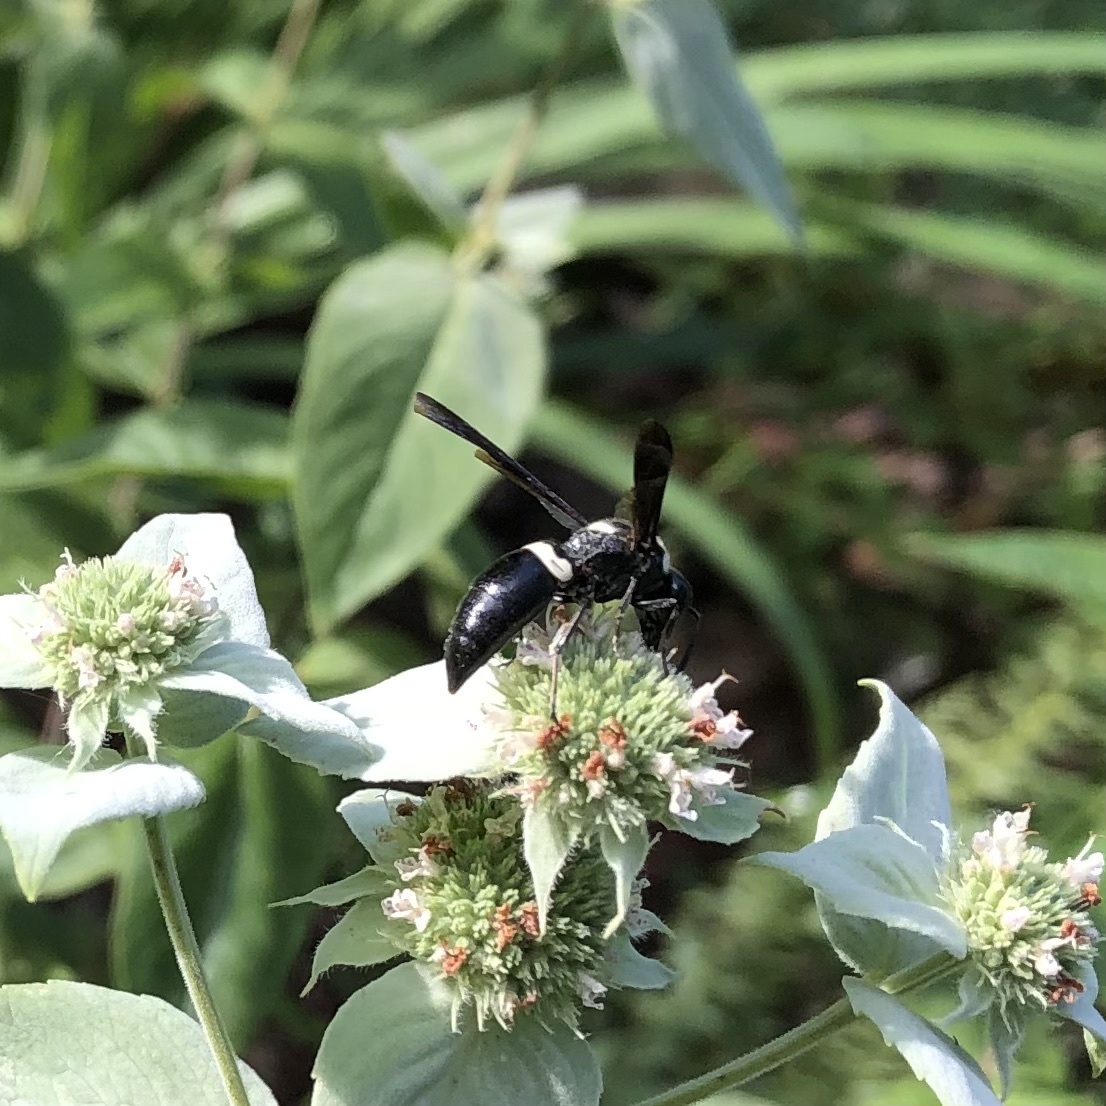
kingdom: Animalia
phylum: Arthropoda
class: Insecta
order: Hymenoptera
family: Eumenidae
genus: Monobia
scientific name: Monobia quadridens
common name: Four-toothed mason wasp
